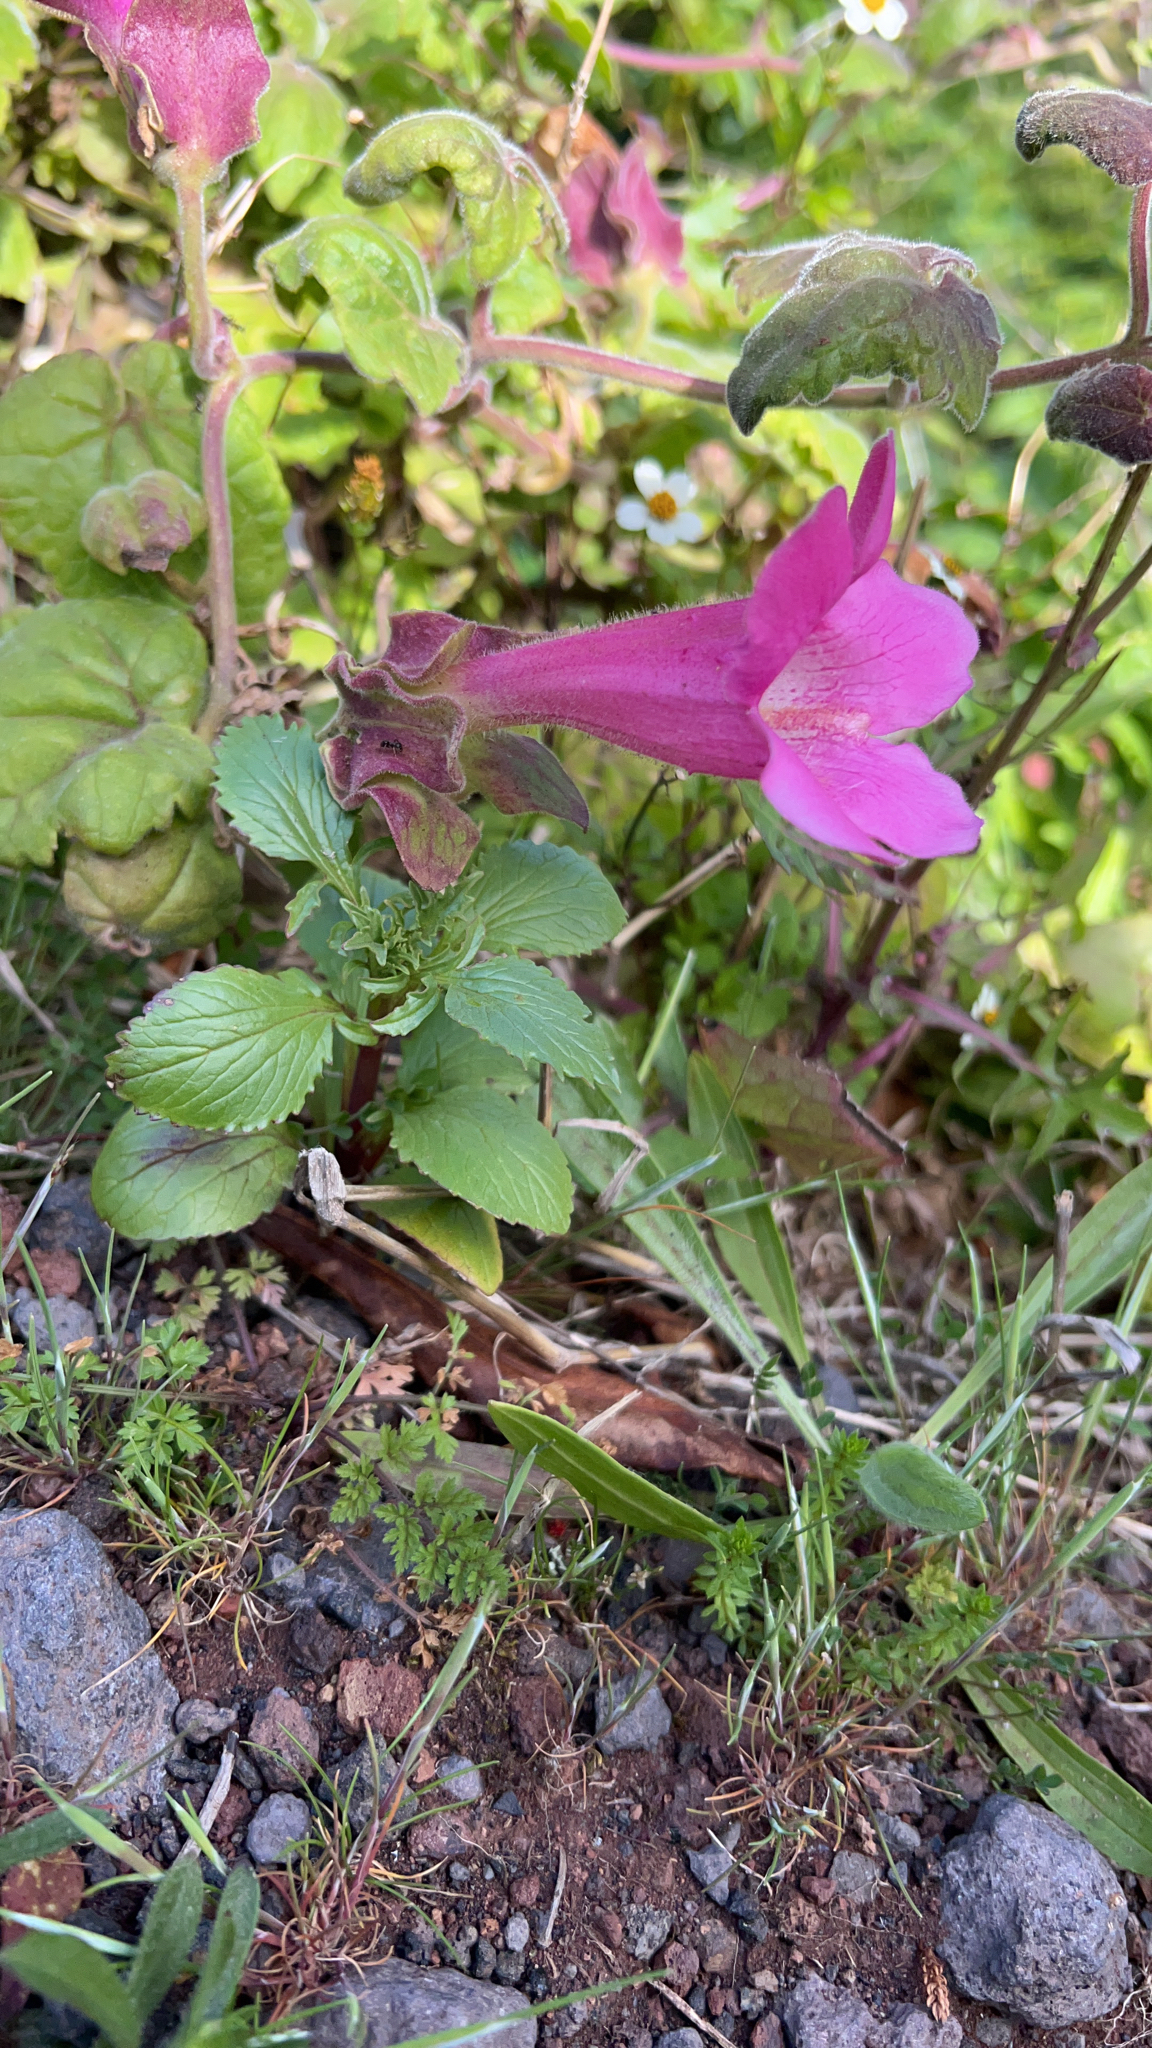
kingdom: Plantae
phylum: Tracheophyta
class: Magnoliopsida
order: Lamiales
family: Plantaginaceae
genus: Lophospermum
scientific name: Lophospermum erubescens
